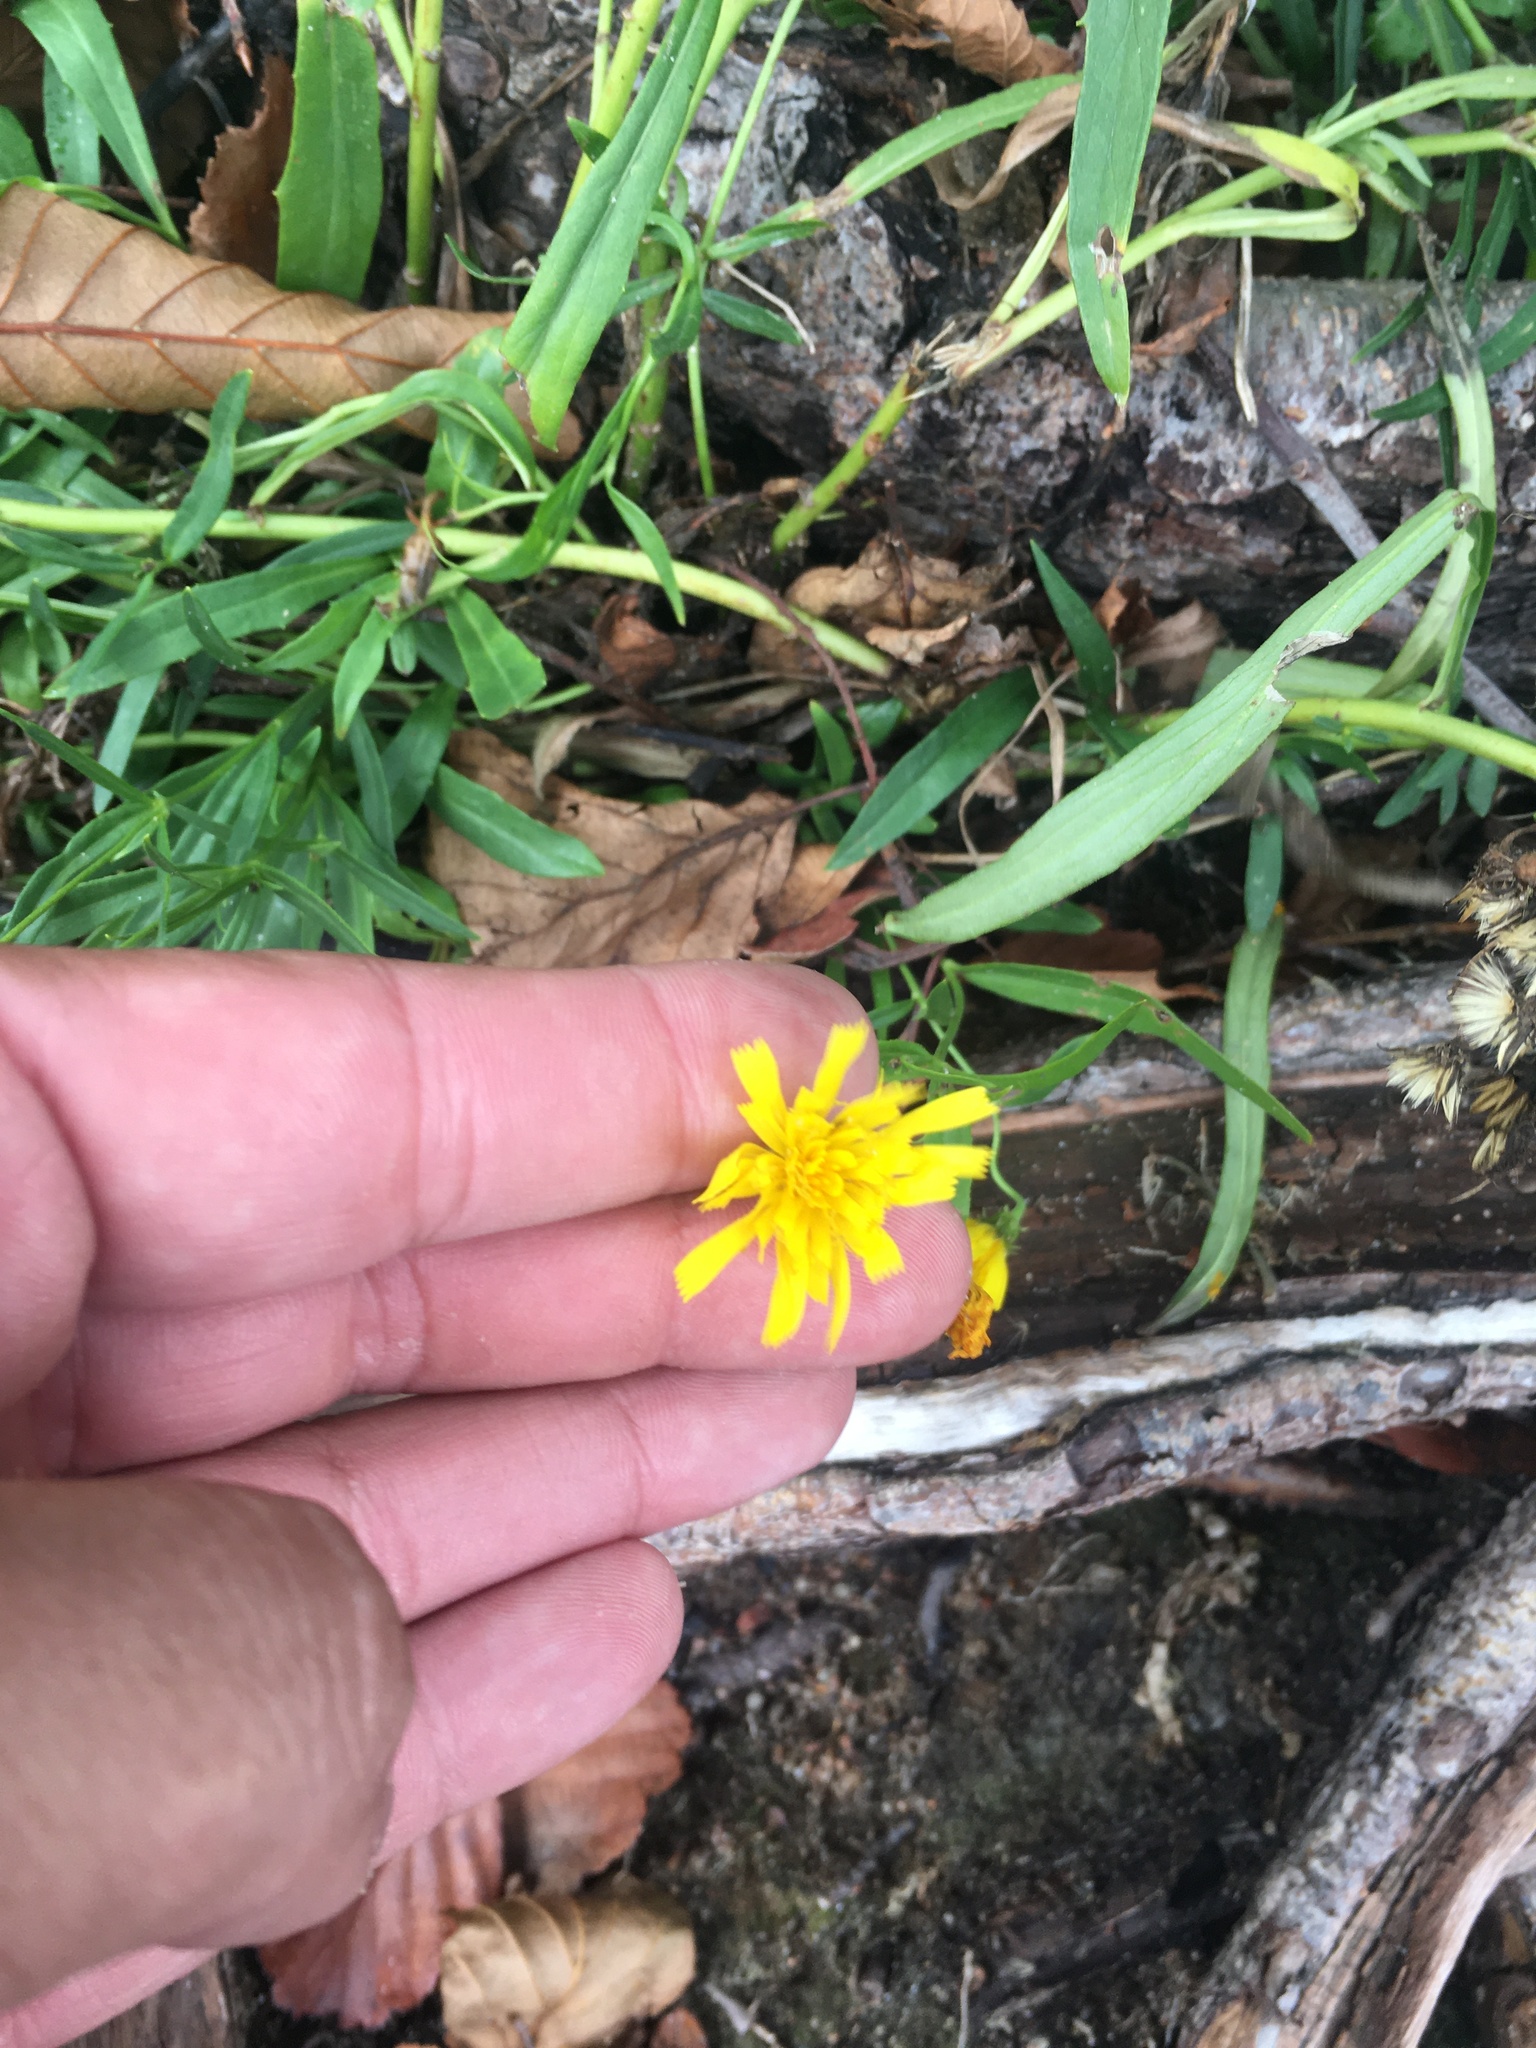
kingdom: Plantae
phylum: Tracheophyta
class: Magnoliopsida
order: Asterales
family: Asteraceae
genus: Hieracium
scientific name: Hieracium umbellatum
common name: Northern hawkweed
